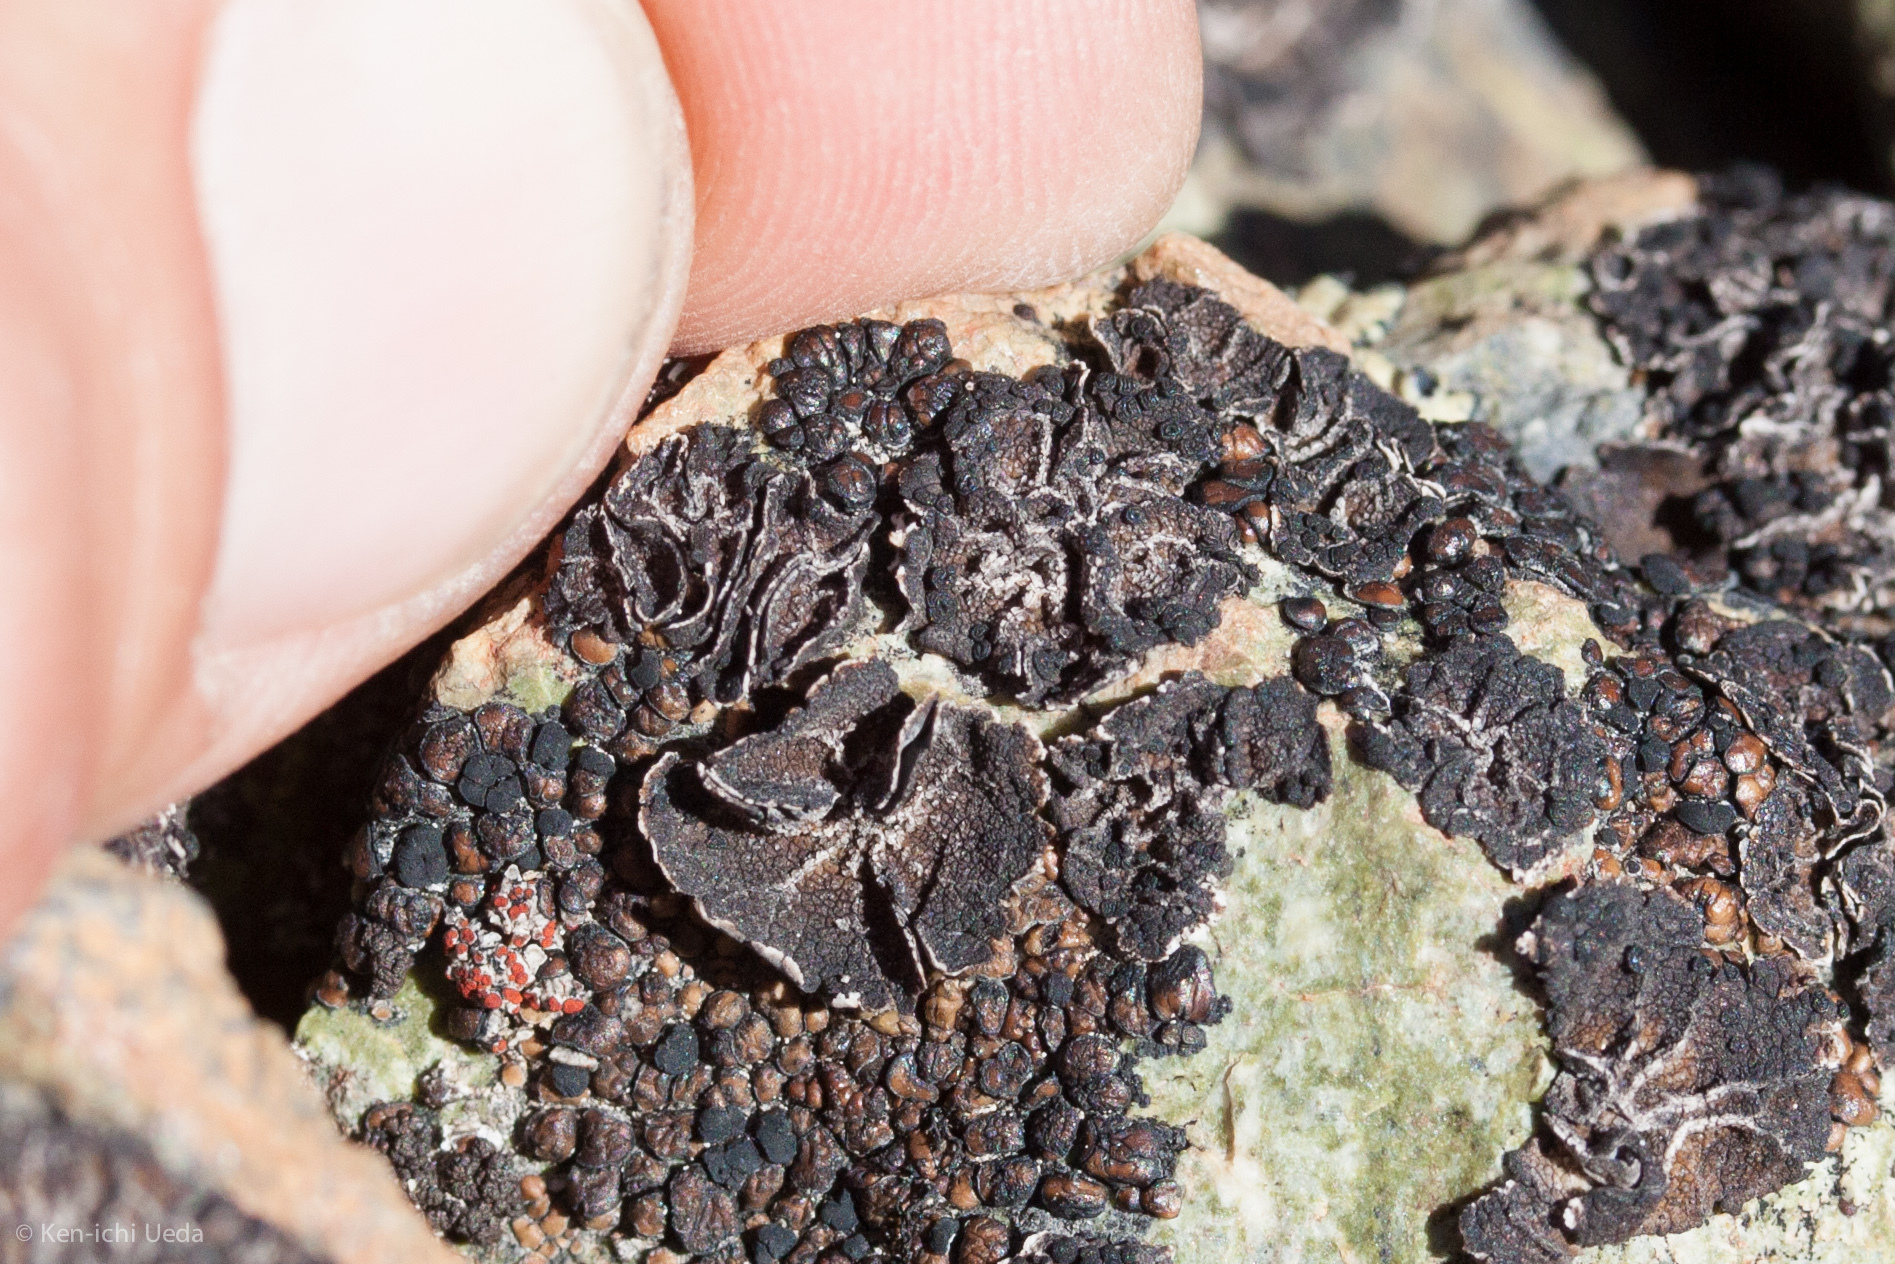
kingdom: Fungi
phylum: Ascomycota
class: Lecanoromycetes
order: Umbilicariales
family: Umbilicariaceae
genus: Umbilicaria
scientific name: Umbilicaria polaris
